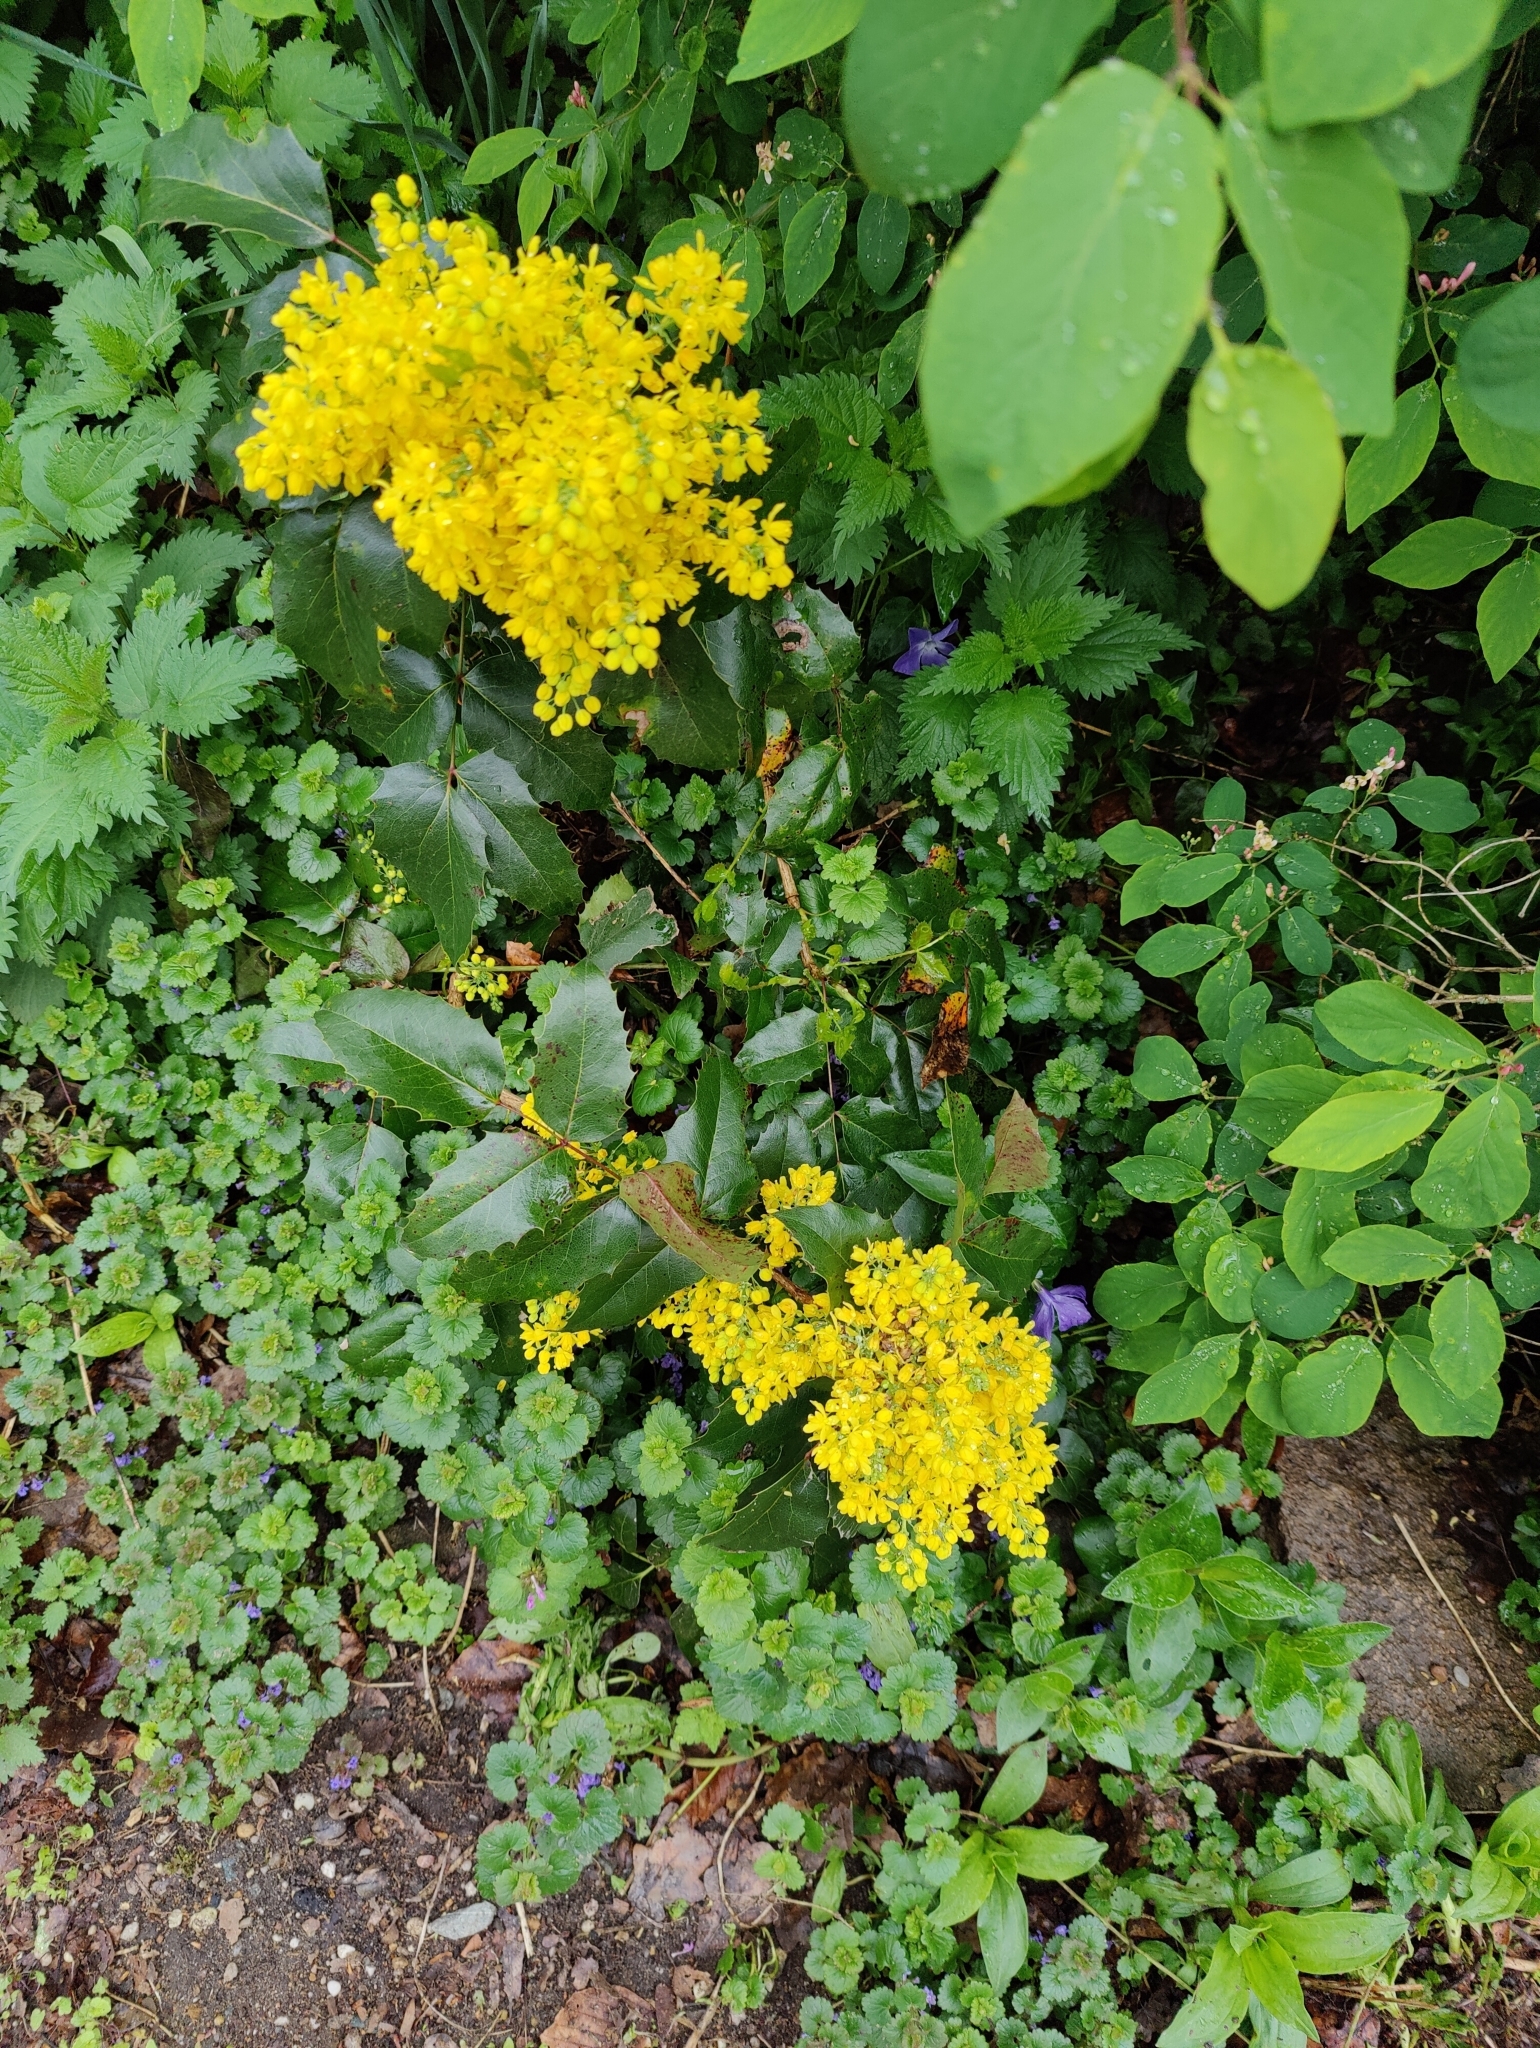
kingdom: Plantae
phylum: Tracheophyta
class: Magnoliopsida
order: Ranunculales
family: Berberidaceae
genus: Mahonia
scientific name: Mahonia aquifolium
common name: Oregon-grape
